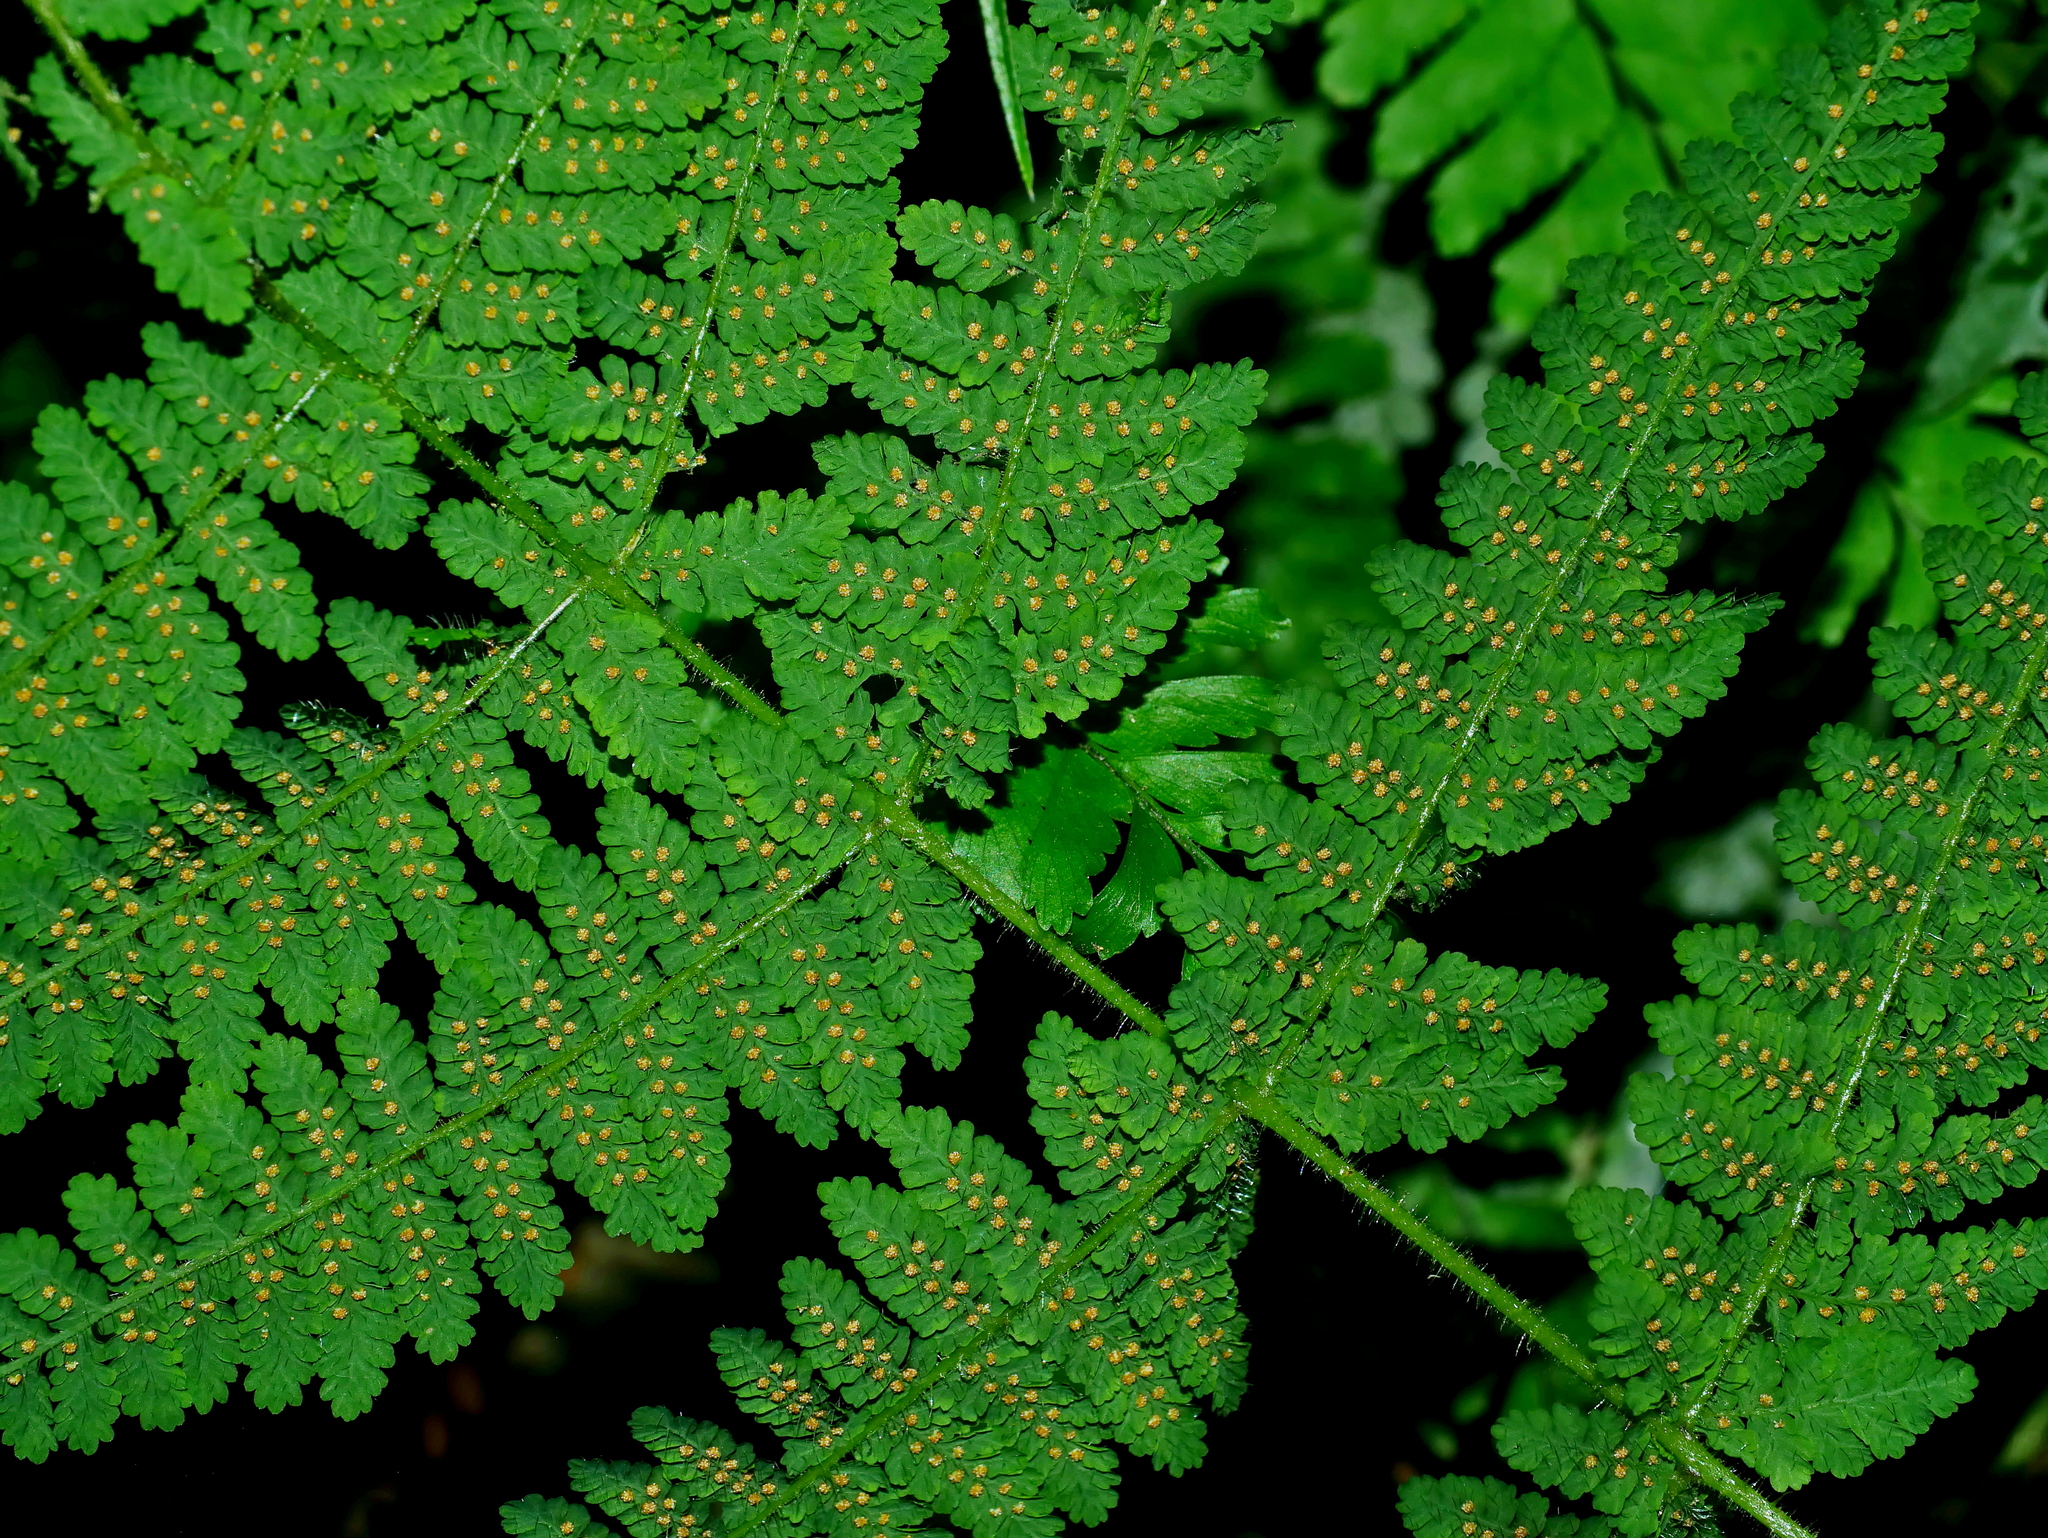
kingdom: Plantae
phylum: Tracheophyta
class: Polypodiopsida
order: Polypodiales
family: Cystopteridaceae
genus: Acystopteris
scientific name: Acystopteris tenuisecta
